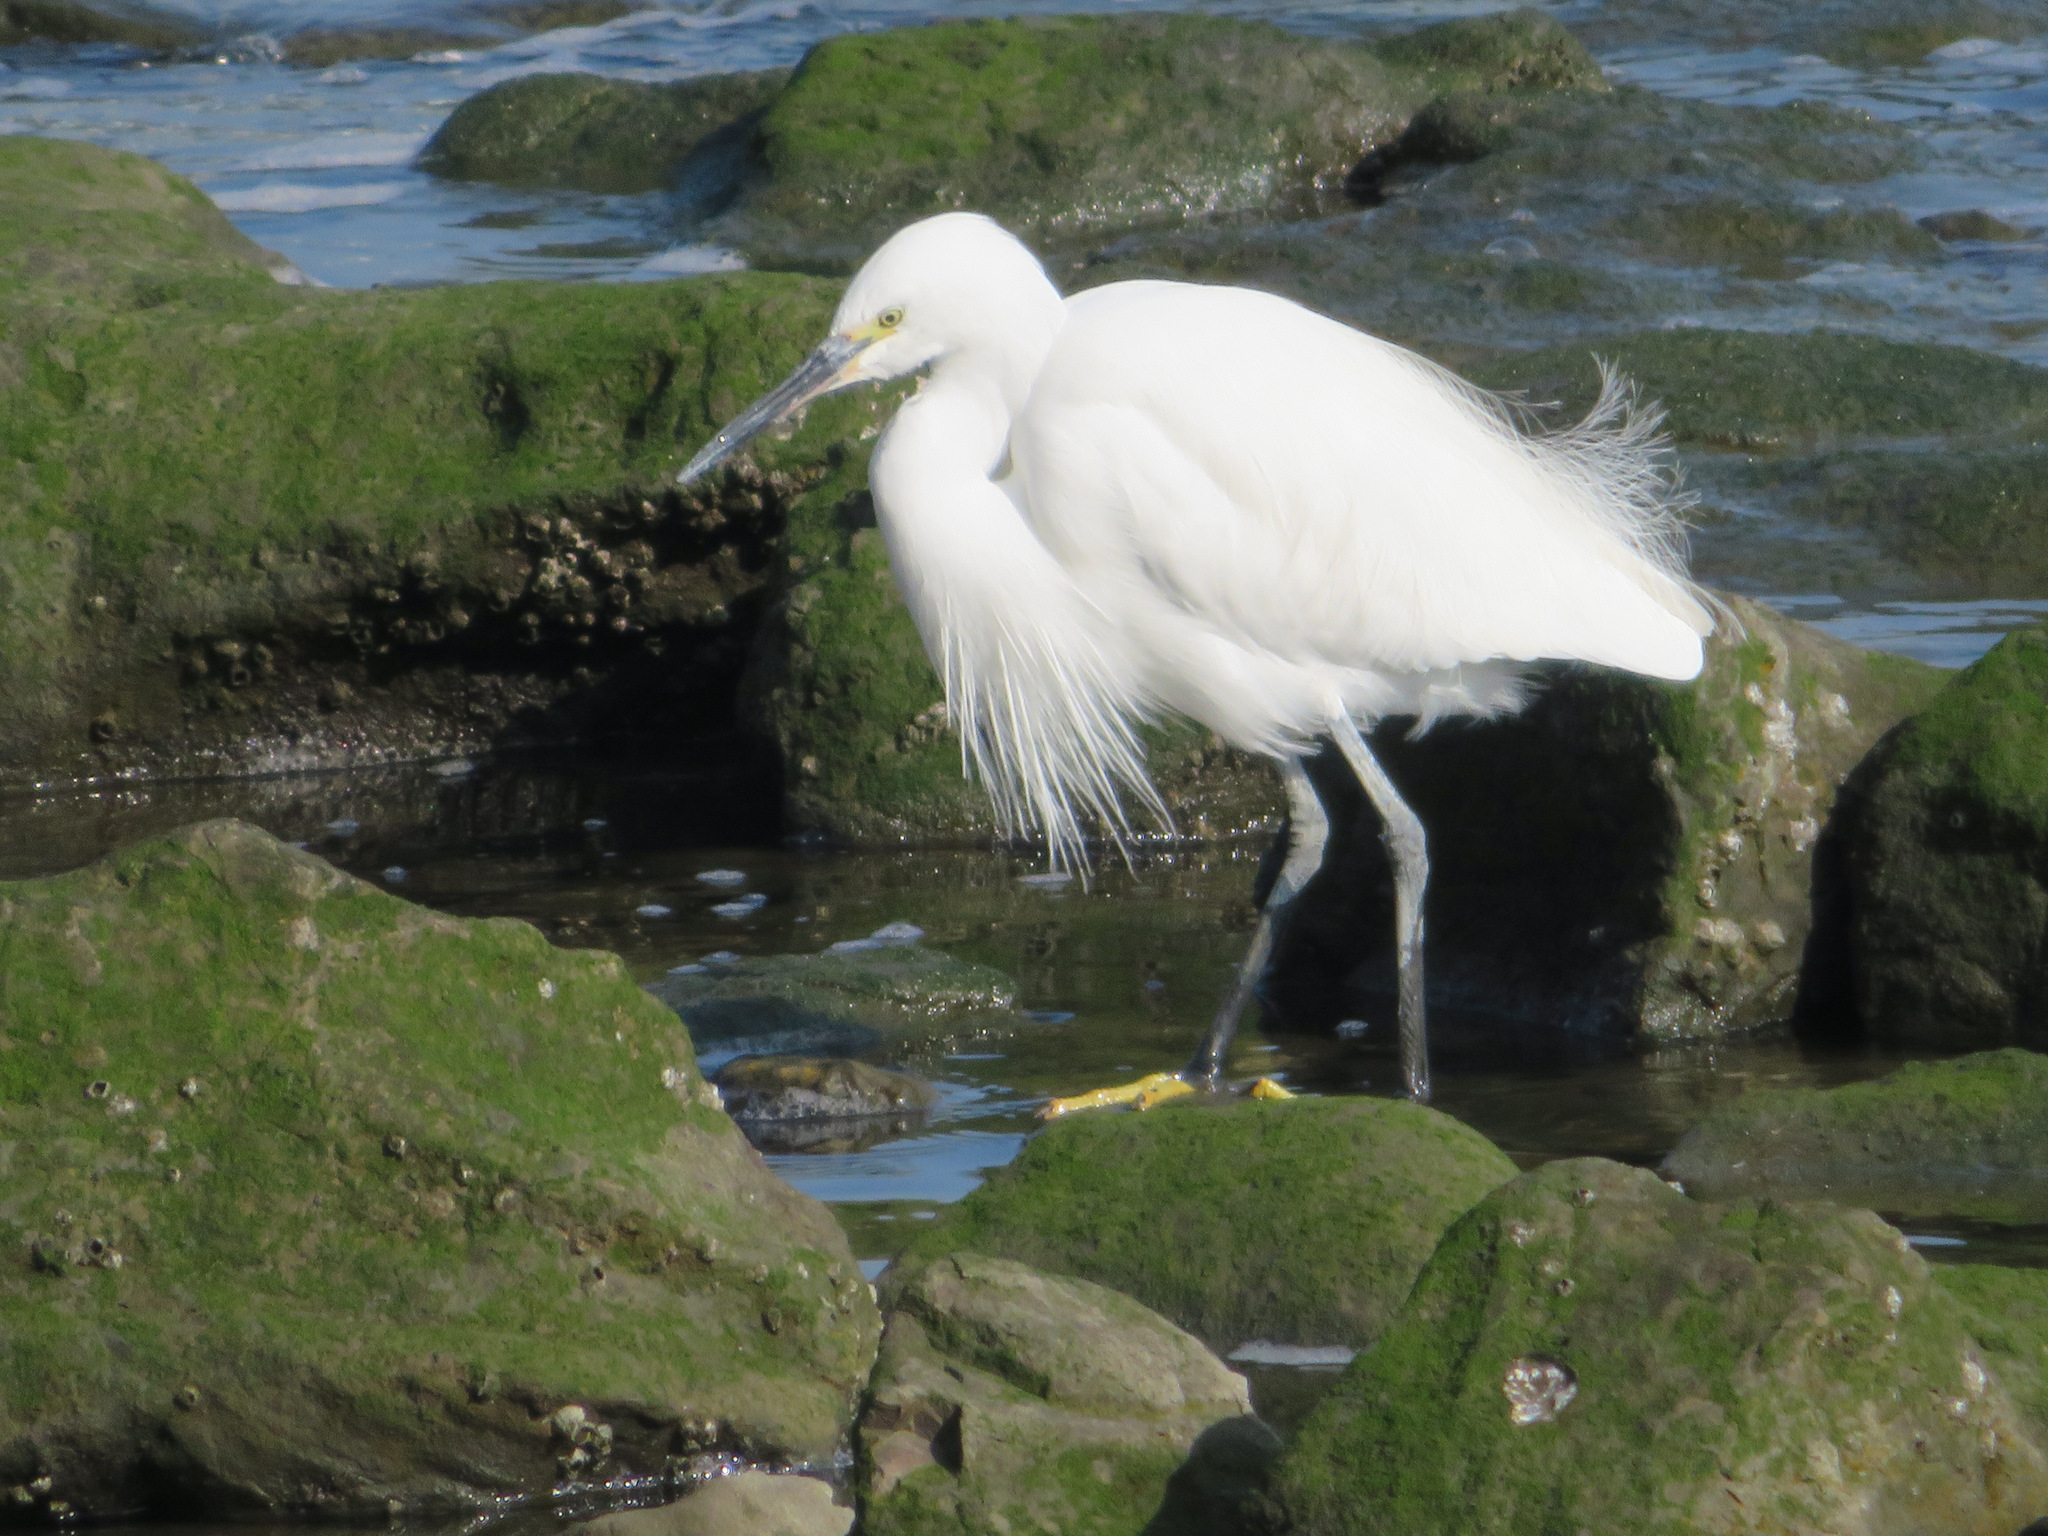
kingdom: Animalia
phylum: Chordata
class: Aves
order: Pelecaniformes
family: Ardeidae
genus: Egretta
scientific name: Egretta garzetta
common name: Little egret
